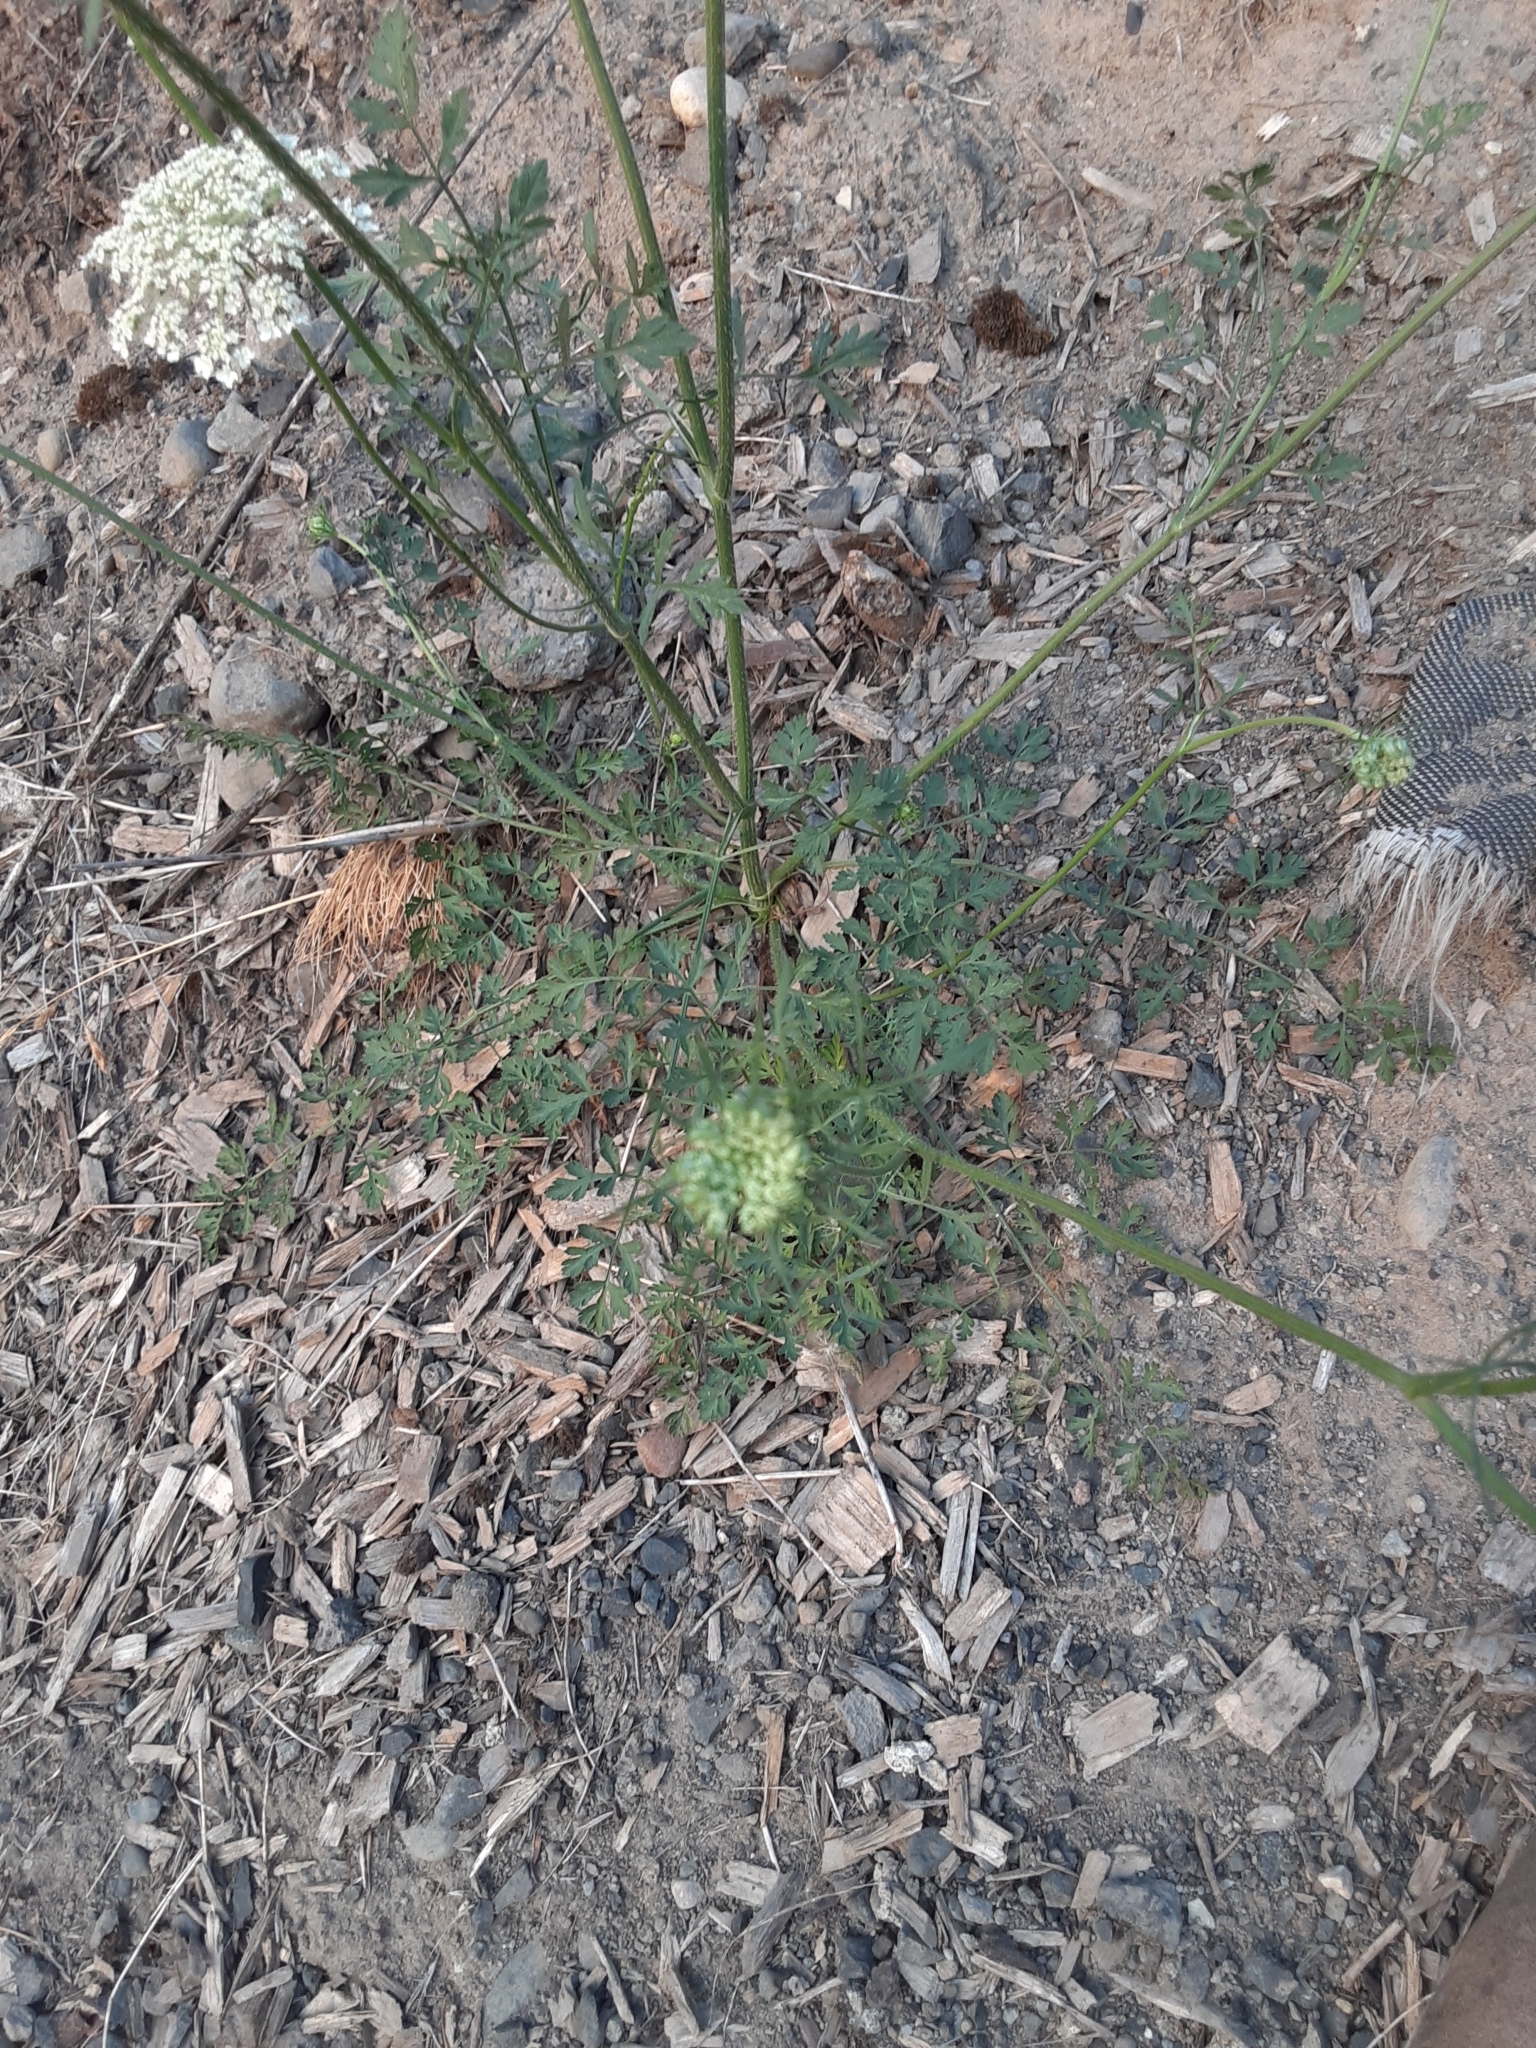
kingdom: Plantae
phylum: Tracheophyta
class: Magnoliopsida
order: Apiales
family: Apiaceae
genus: Daucus
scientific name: Daucus carota
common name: Wild carrot
